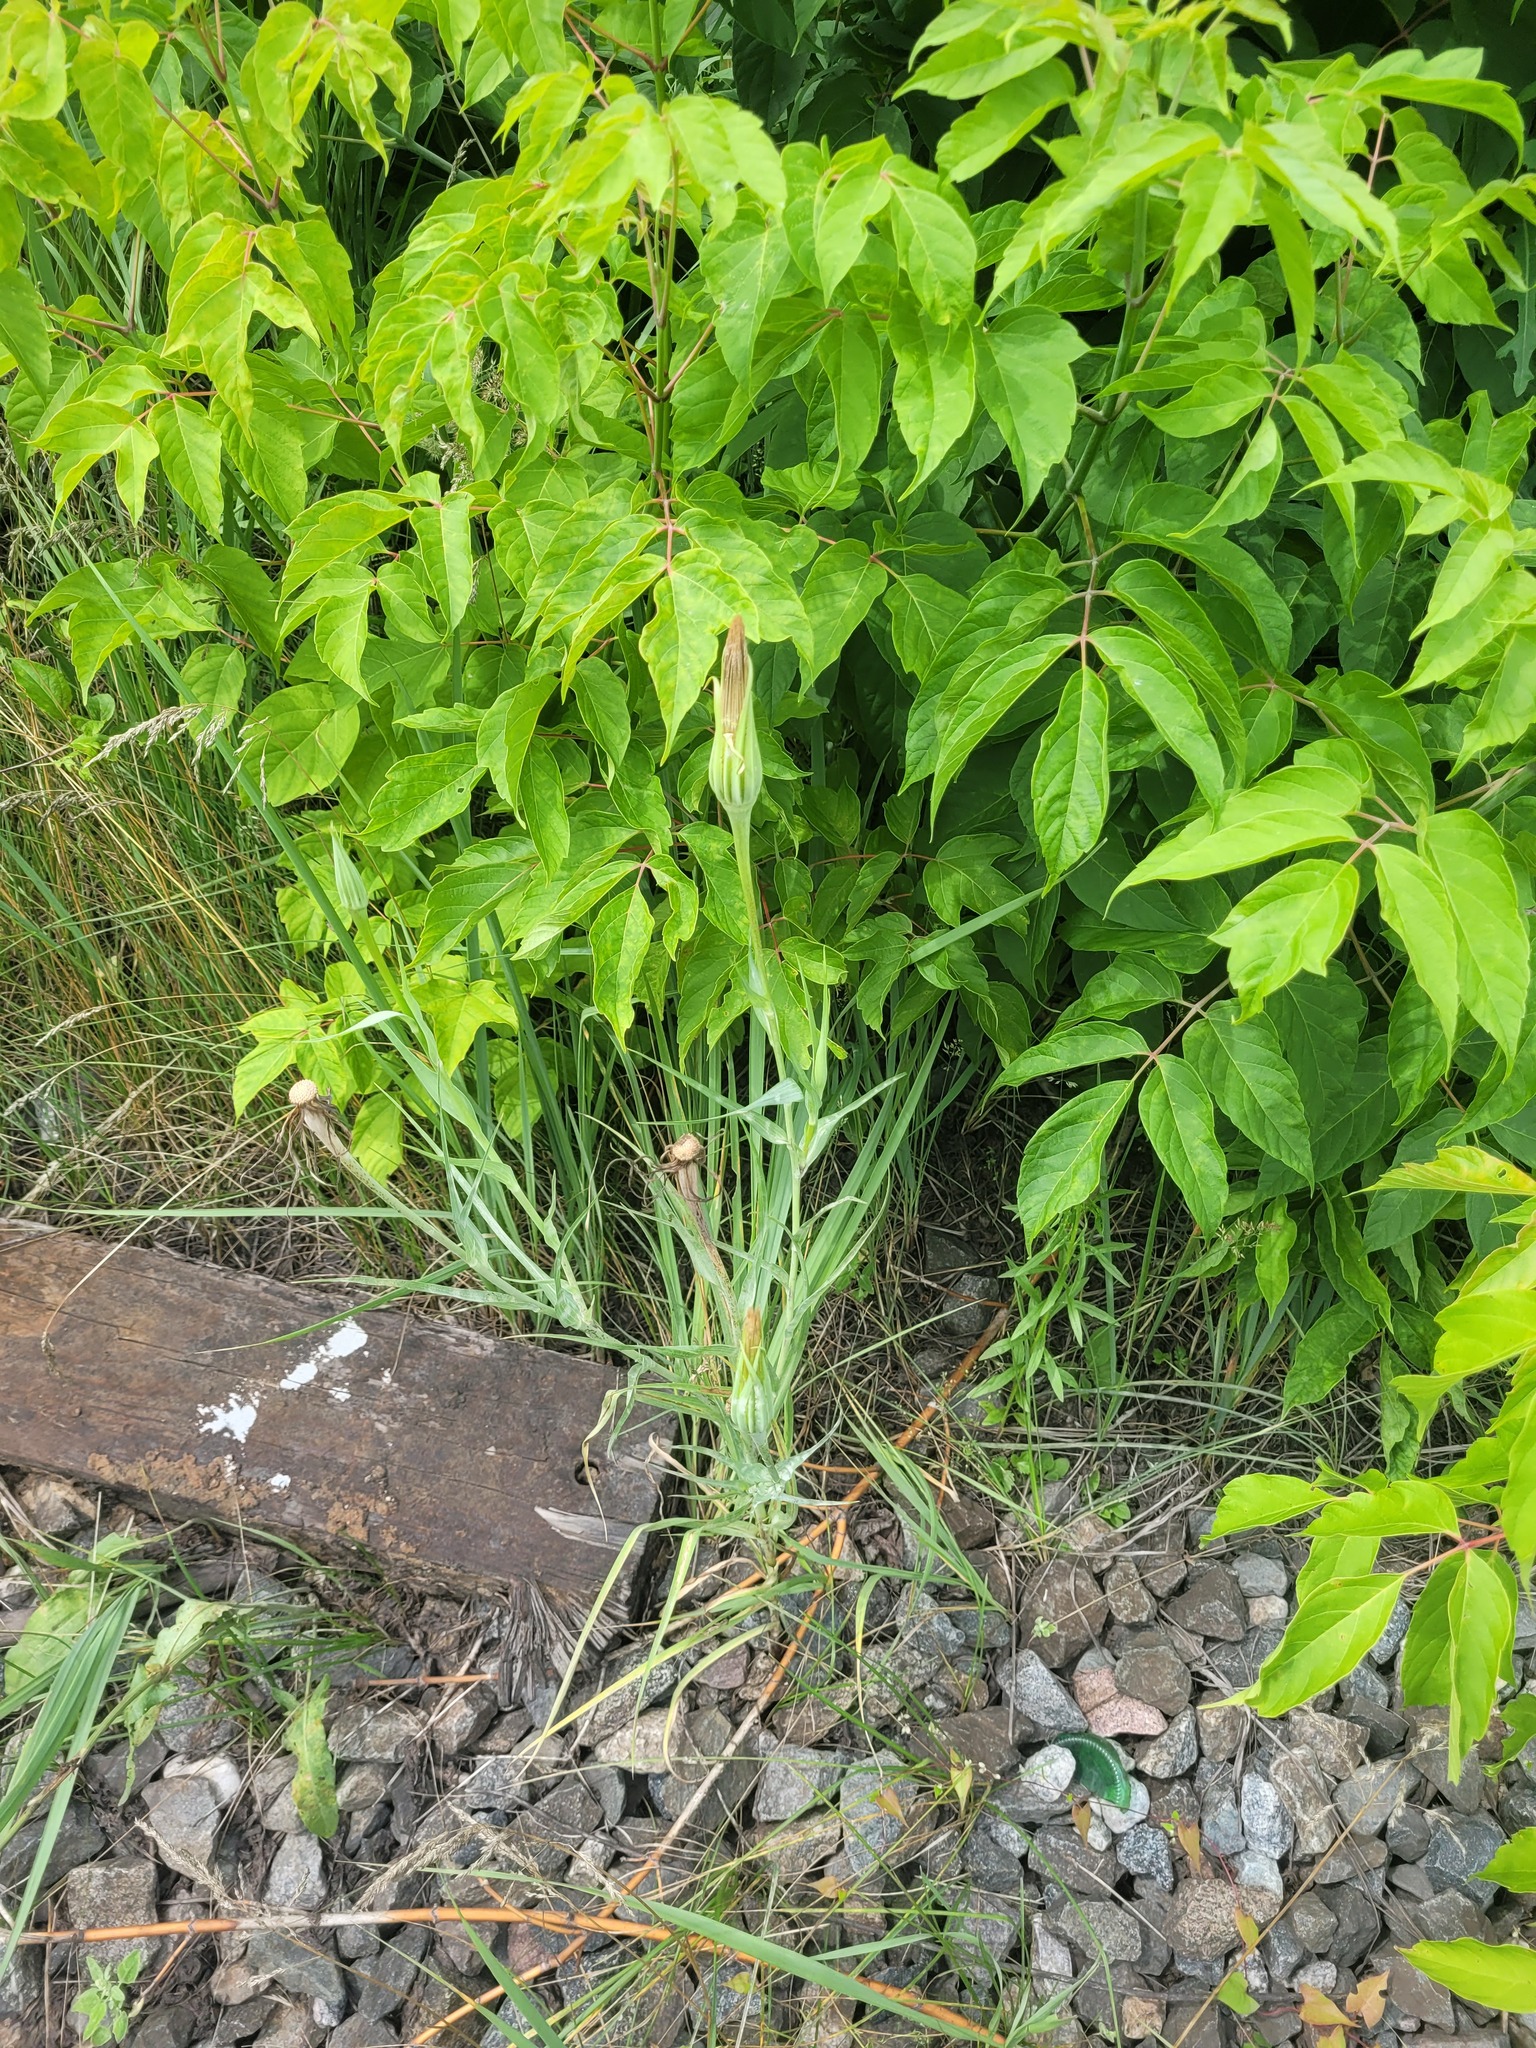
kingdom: Plantae
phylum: Tracheophyta
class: Magnoliopsida
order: Asterales
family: Asteraceae
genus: Tragopogon
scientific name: Tragopogon dubius
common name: Yellow salsify
